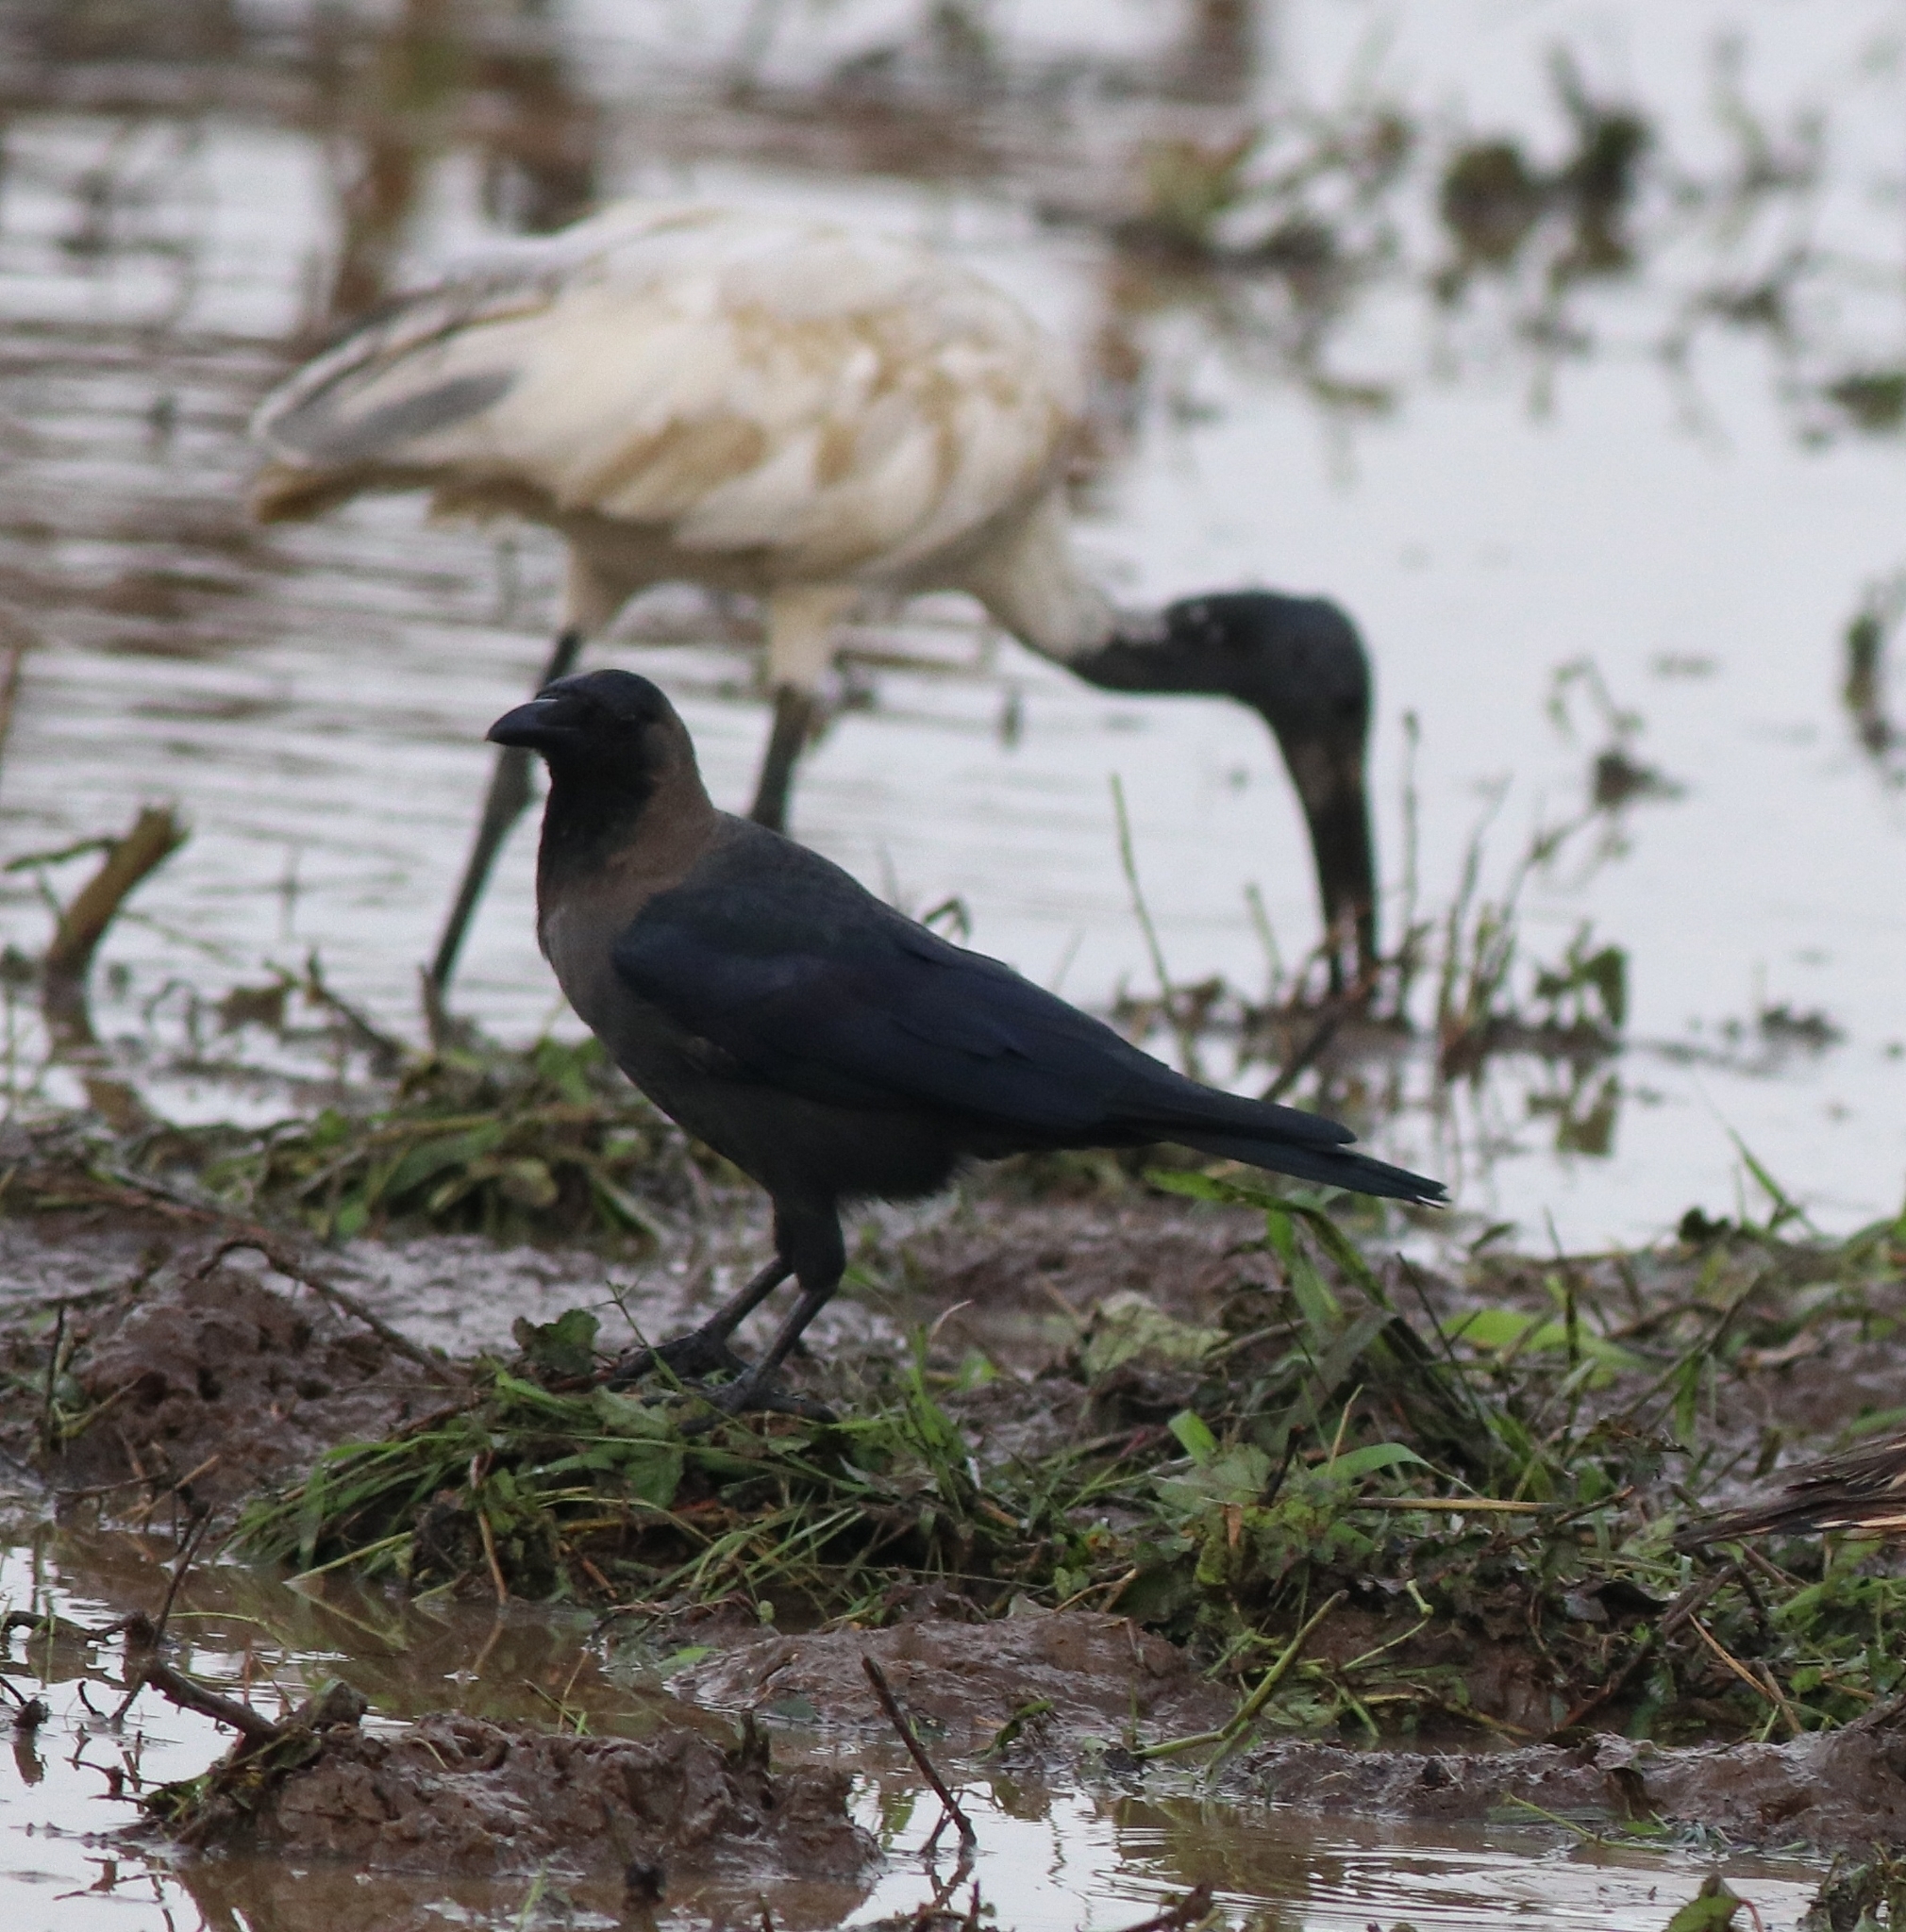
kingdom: Animalia
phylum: Chordata
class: Aves
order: Passeriformes
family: Corvidae
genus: Corvus
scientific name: Corvus splendens
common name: House crow
